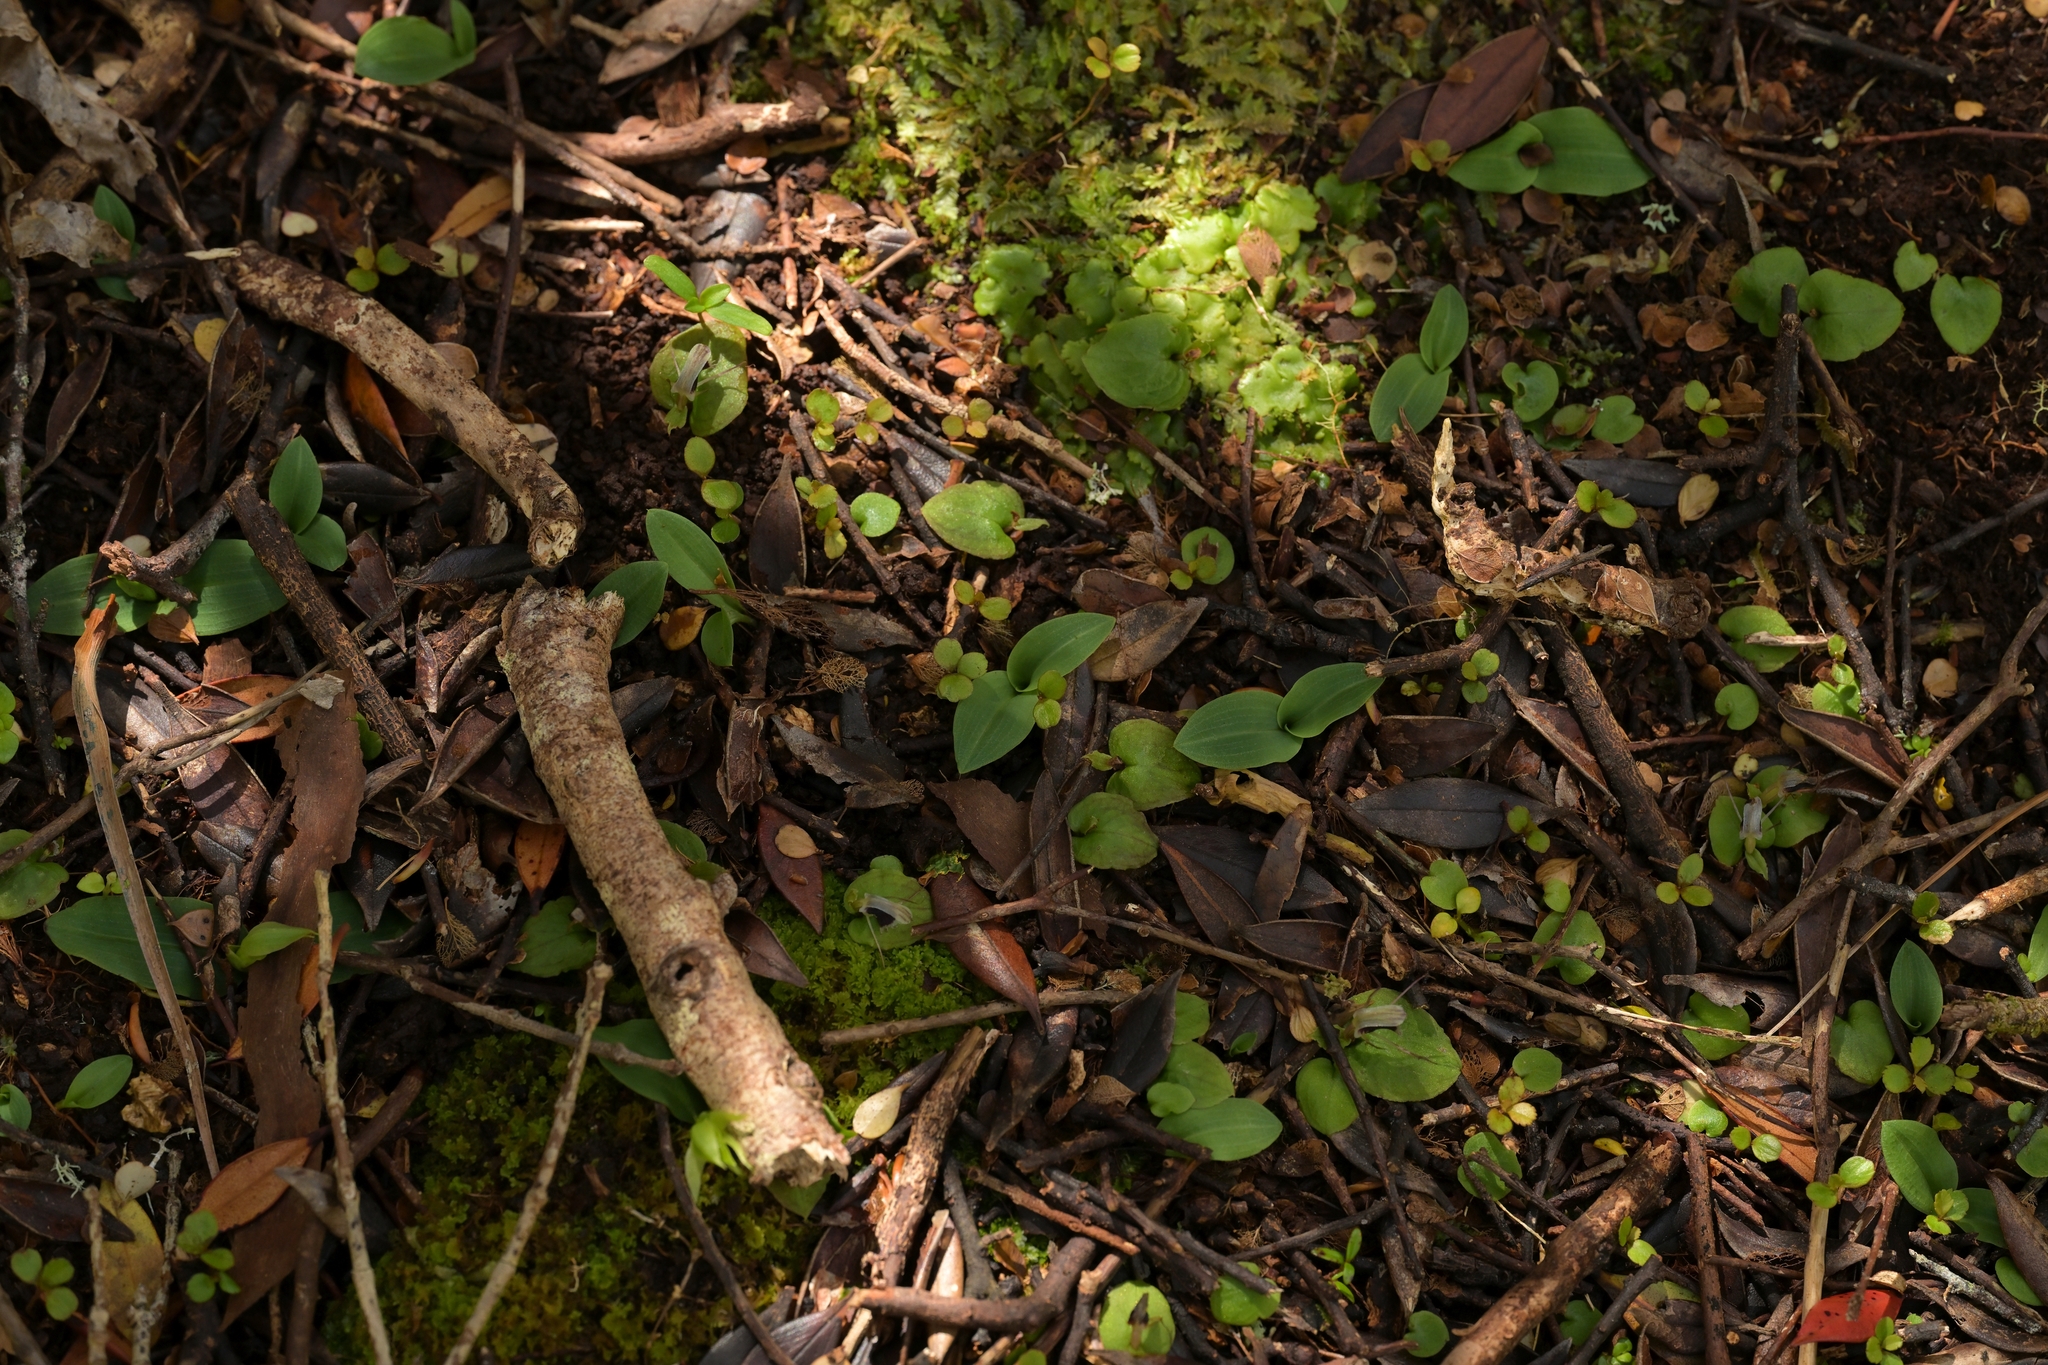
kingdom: Plantae
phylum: Tracheophyta
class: Liliopsida
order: Asparagales
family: Orchidaceae
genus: Chiloglottis
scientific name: Chiloglottis cornuta
